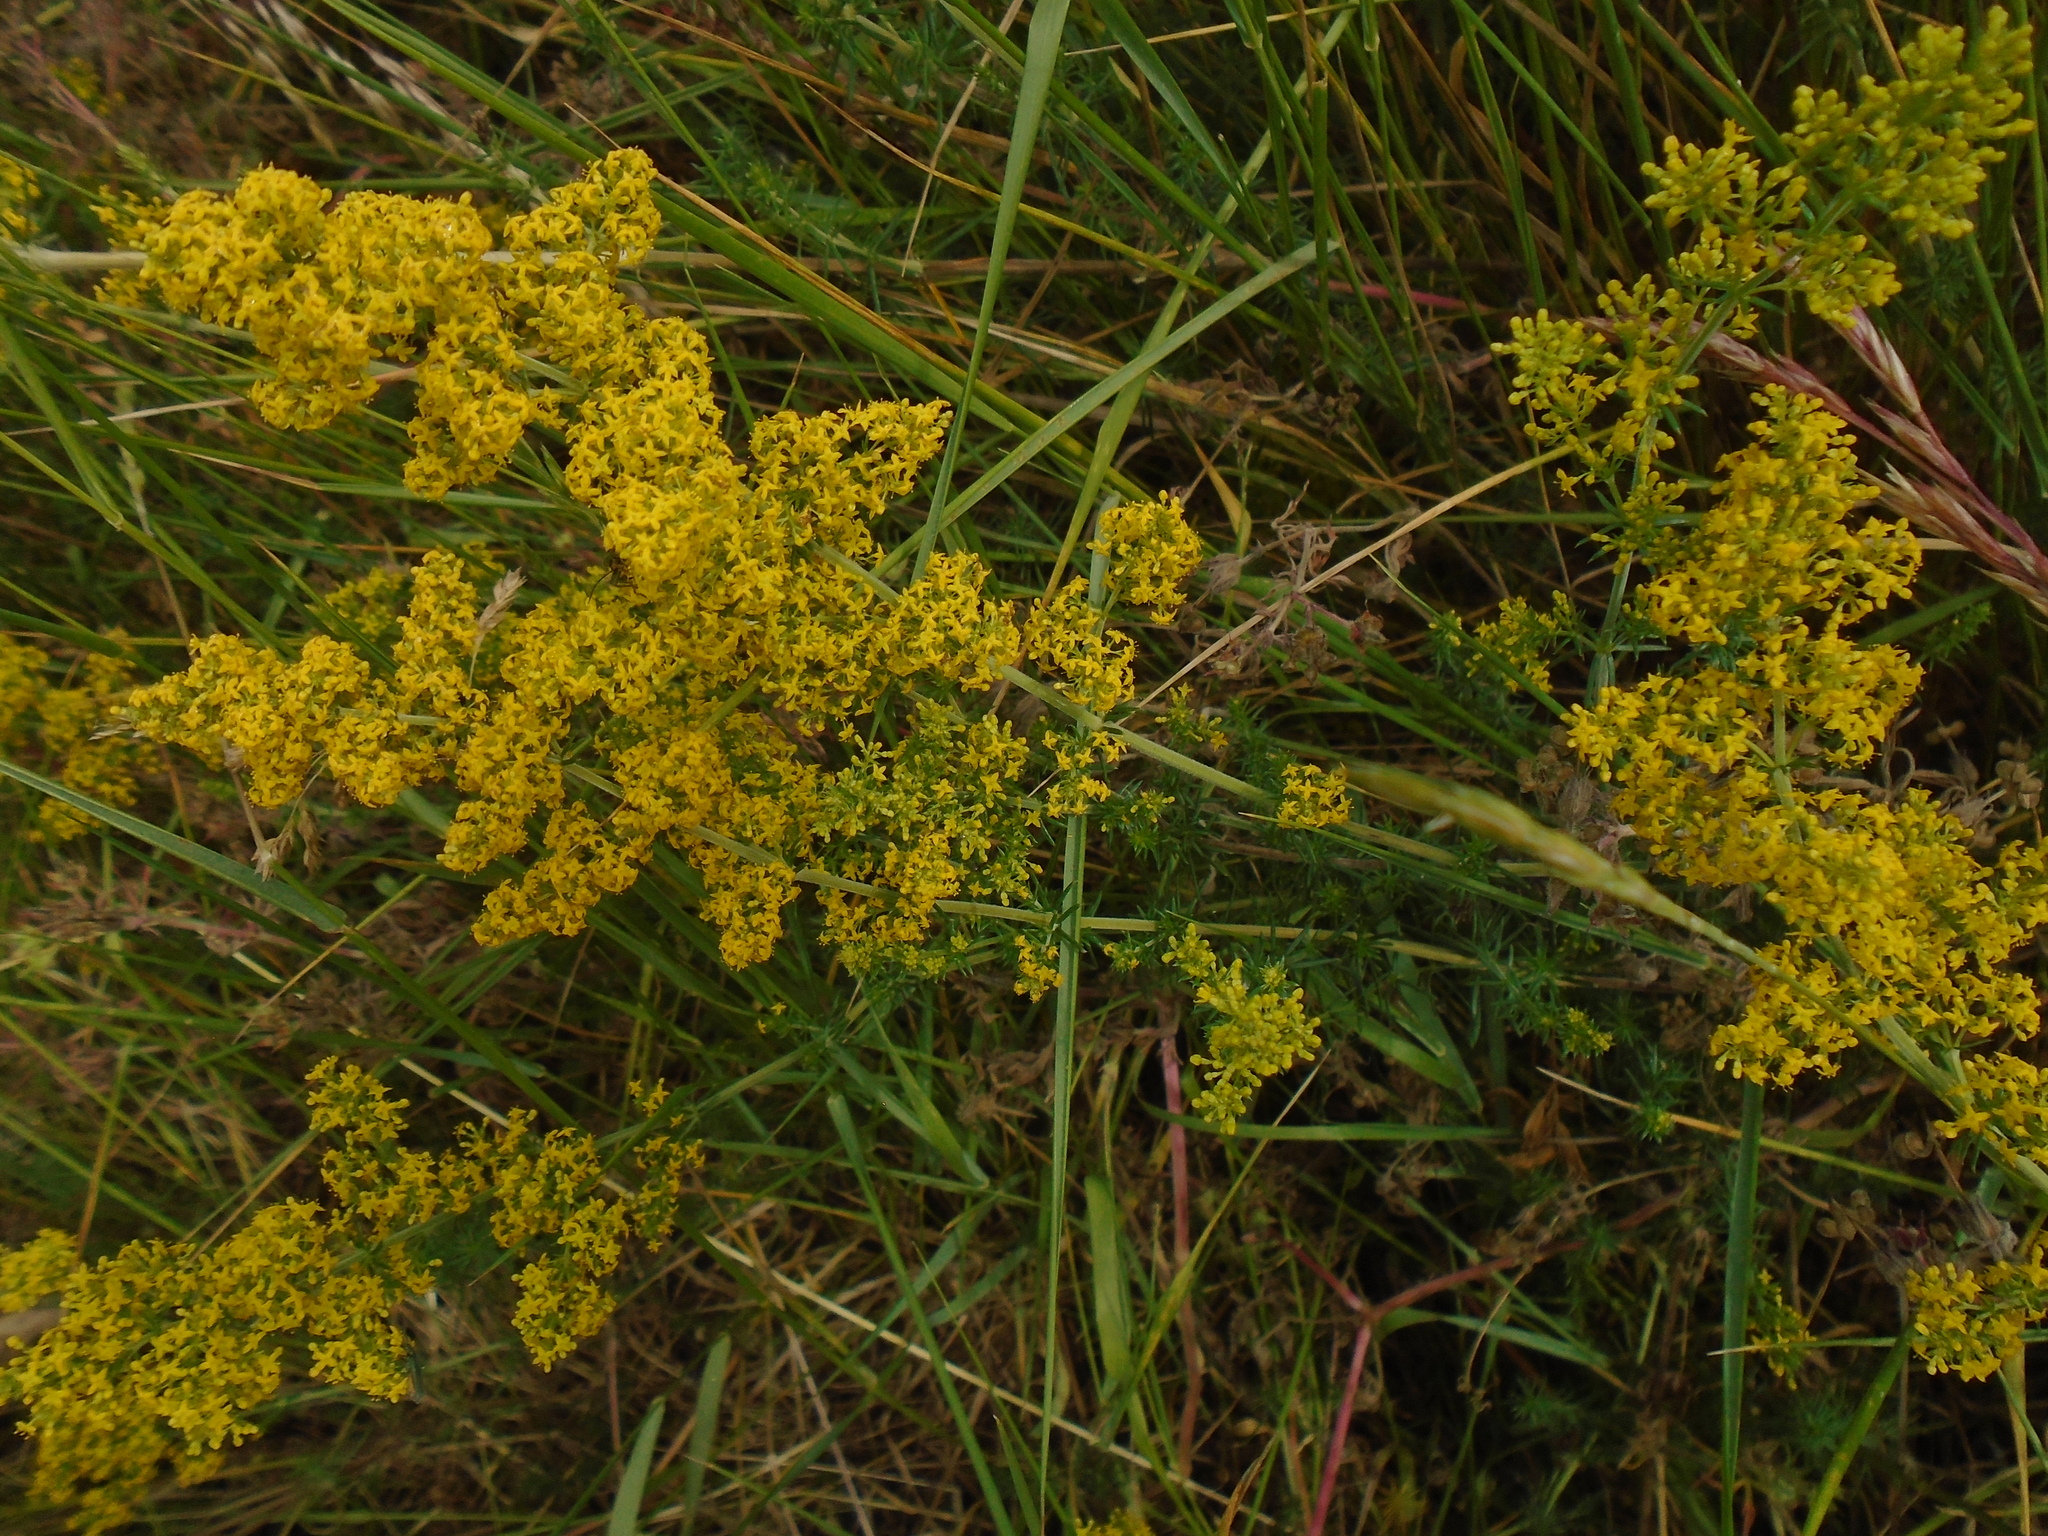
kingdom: Plantae
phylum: Tracheophyta
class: Magnoliopsida
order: Gentianales
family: Rubiaceae
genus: Galium
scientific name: Galium verum
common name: Lady's bedstraw
